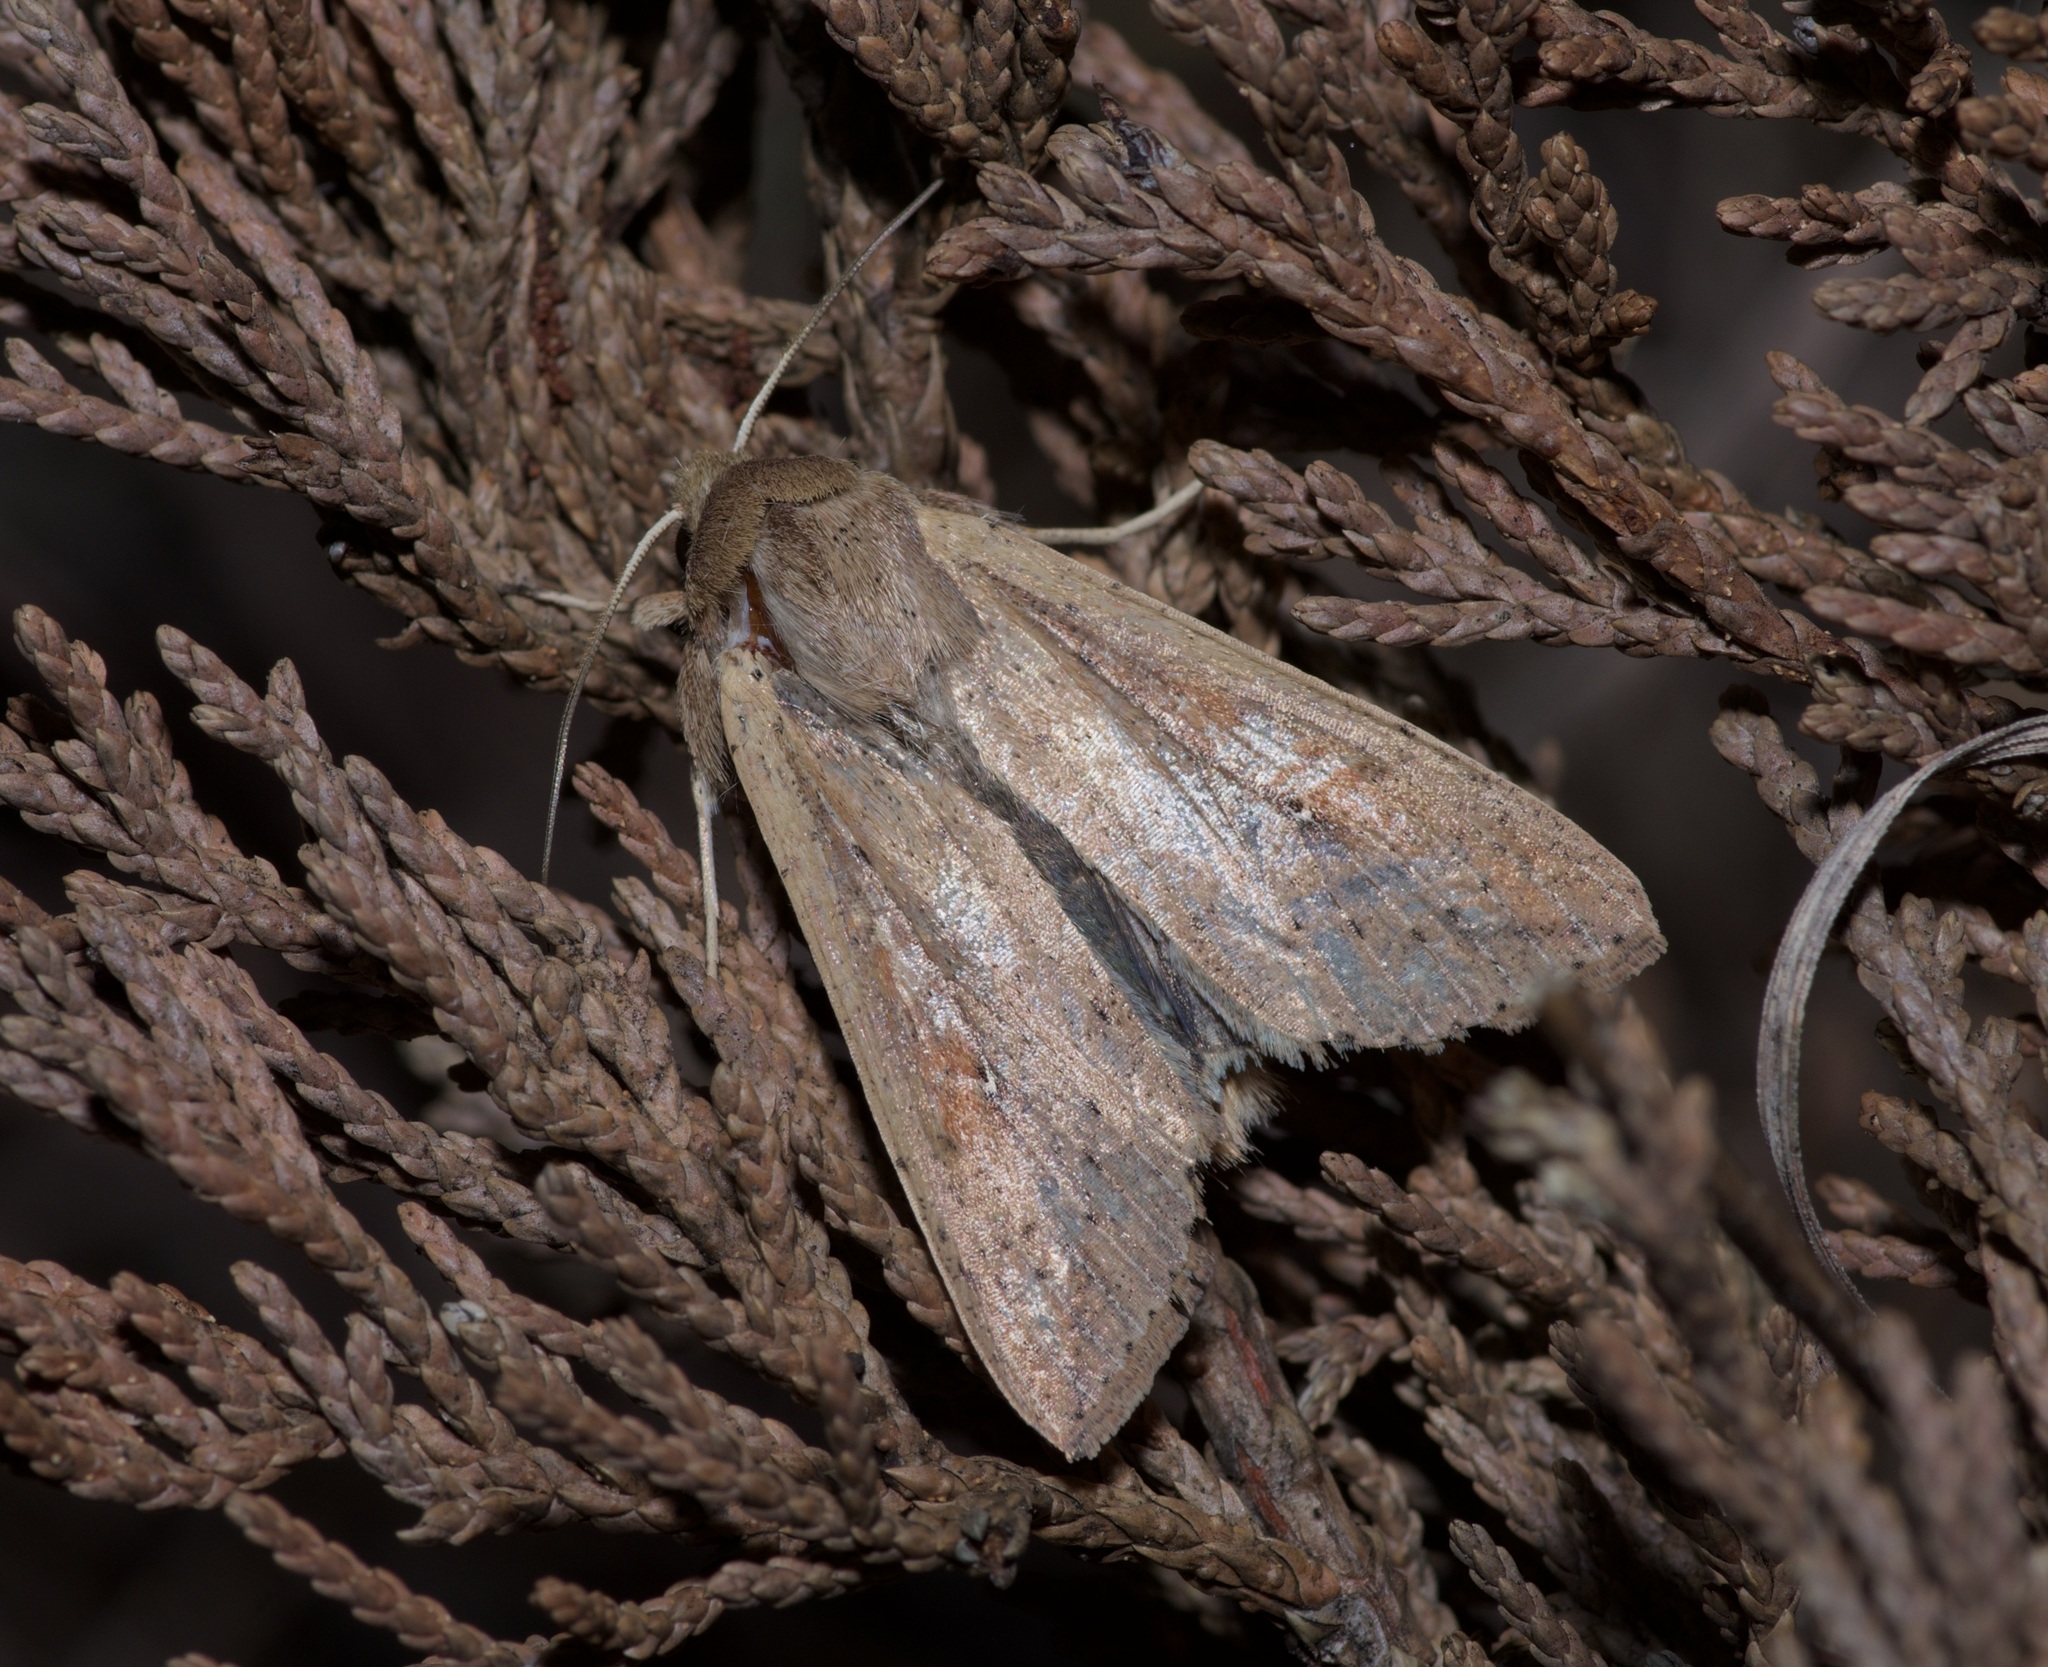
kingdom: Animalia
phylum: Arthropoda
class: Insecta
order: Lepidoptera
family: Noctuidae
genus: Mythimna
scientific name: Mythimna unipuncta
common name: White-speck
